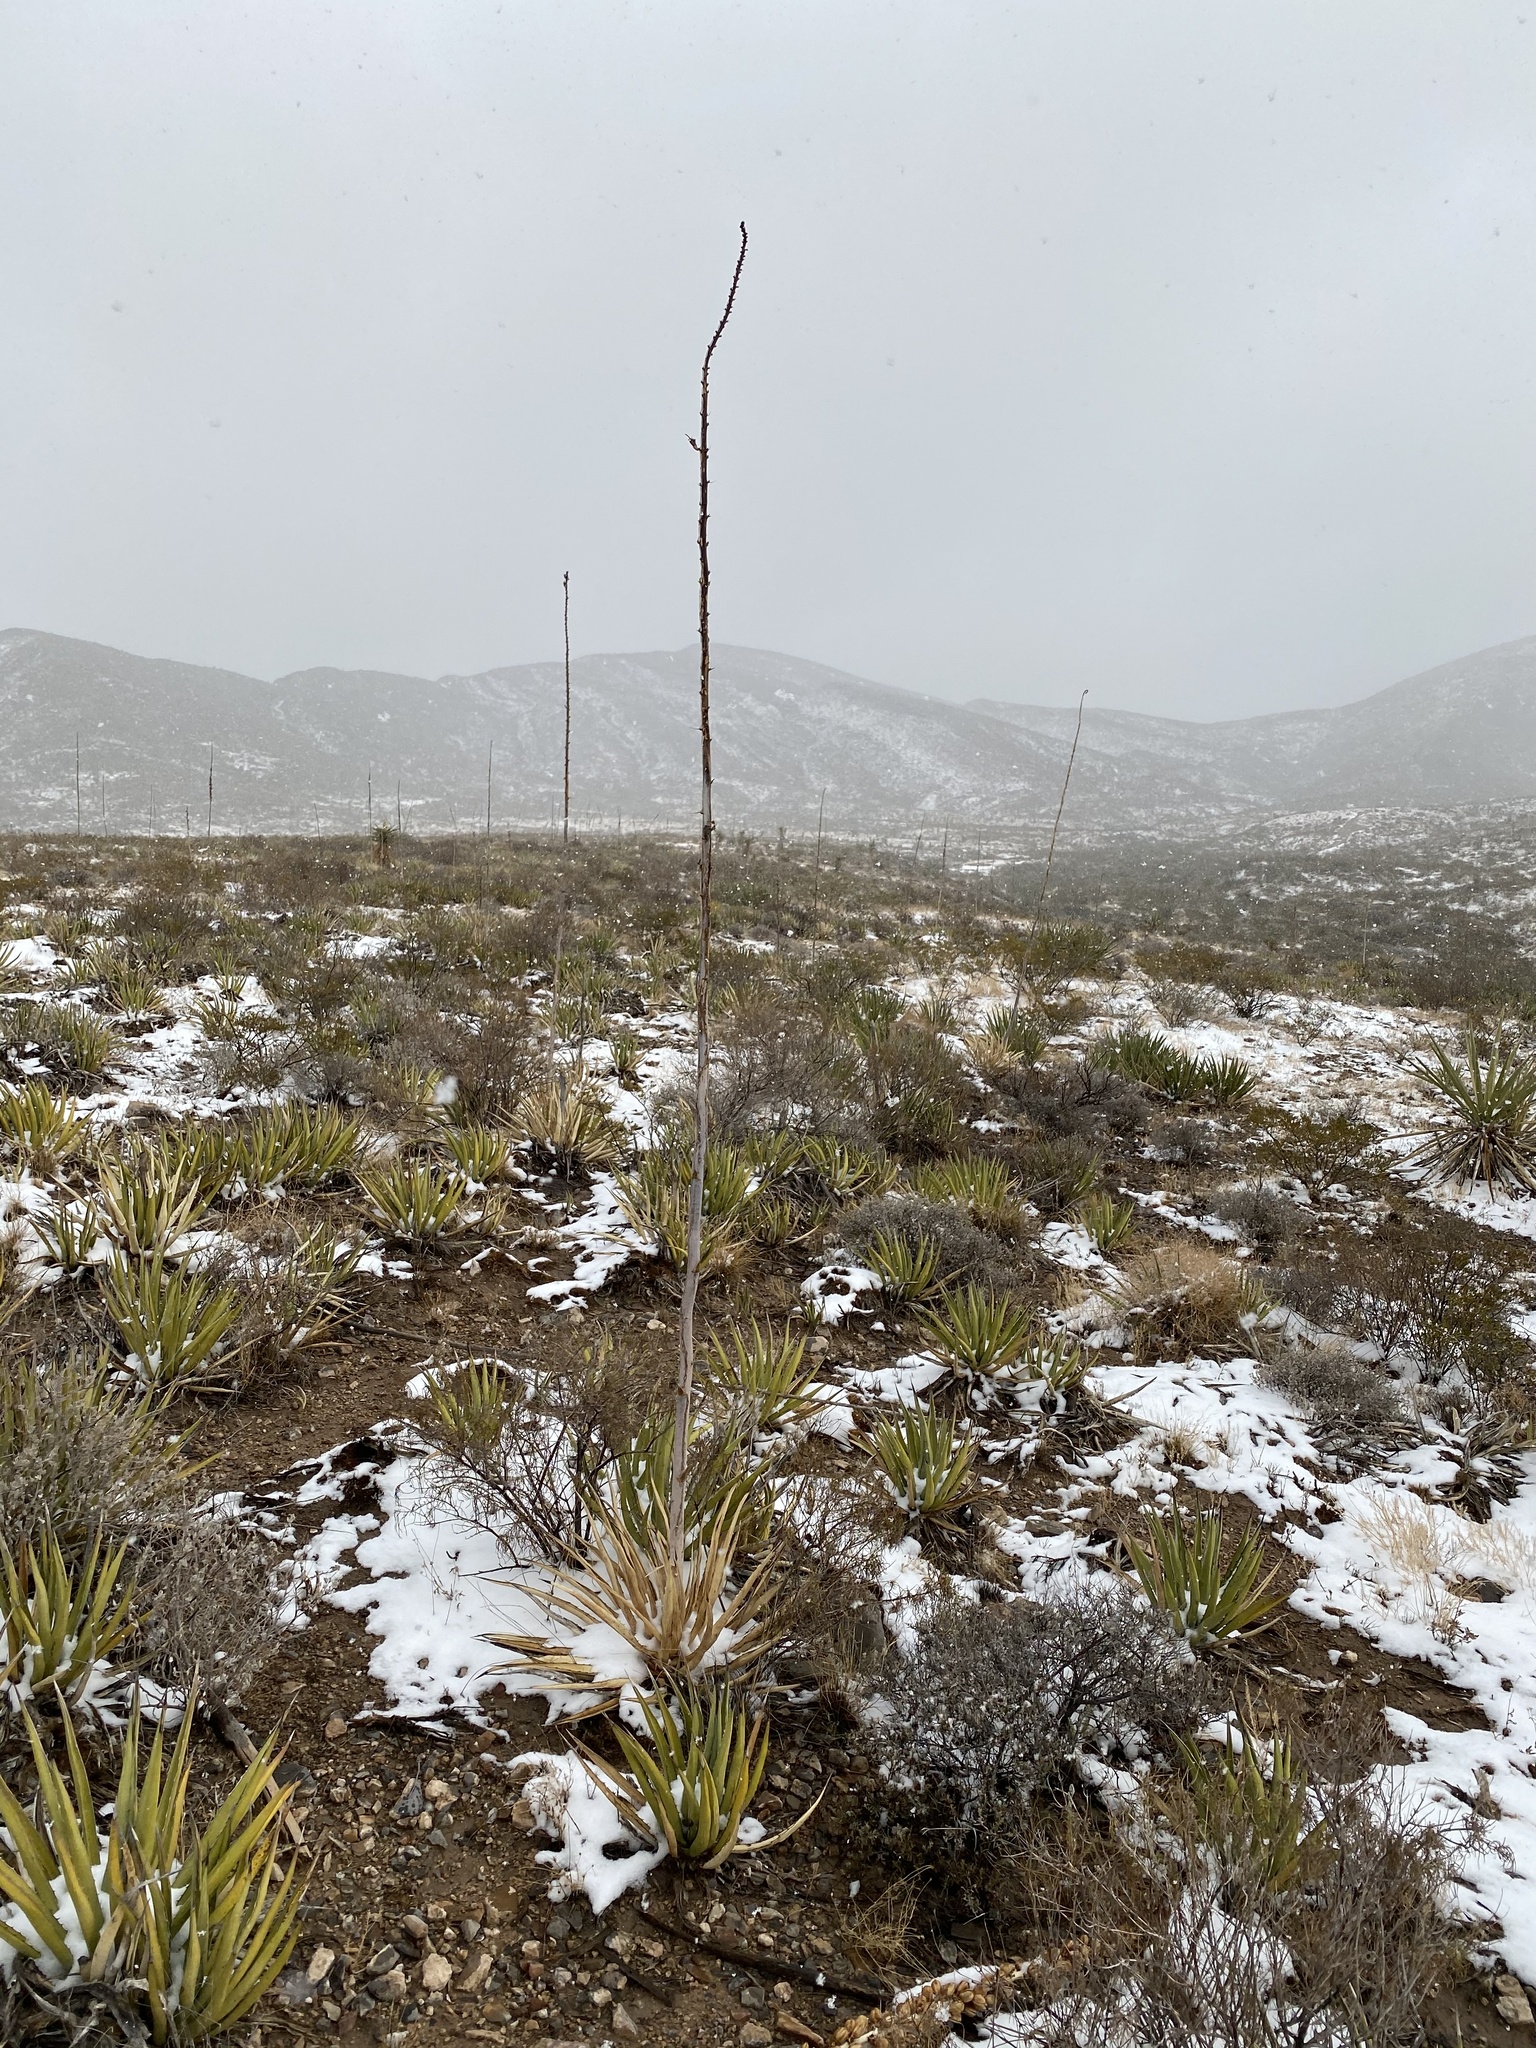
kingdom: Plantae
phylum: Tracheophyta
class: Liliopsida
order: Asparagales
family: Asparagaceae
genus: Agave
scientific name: Agave lechuguilla
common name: Lecheguilla agave
